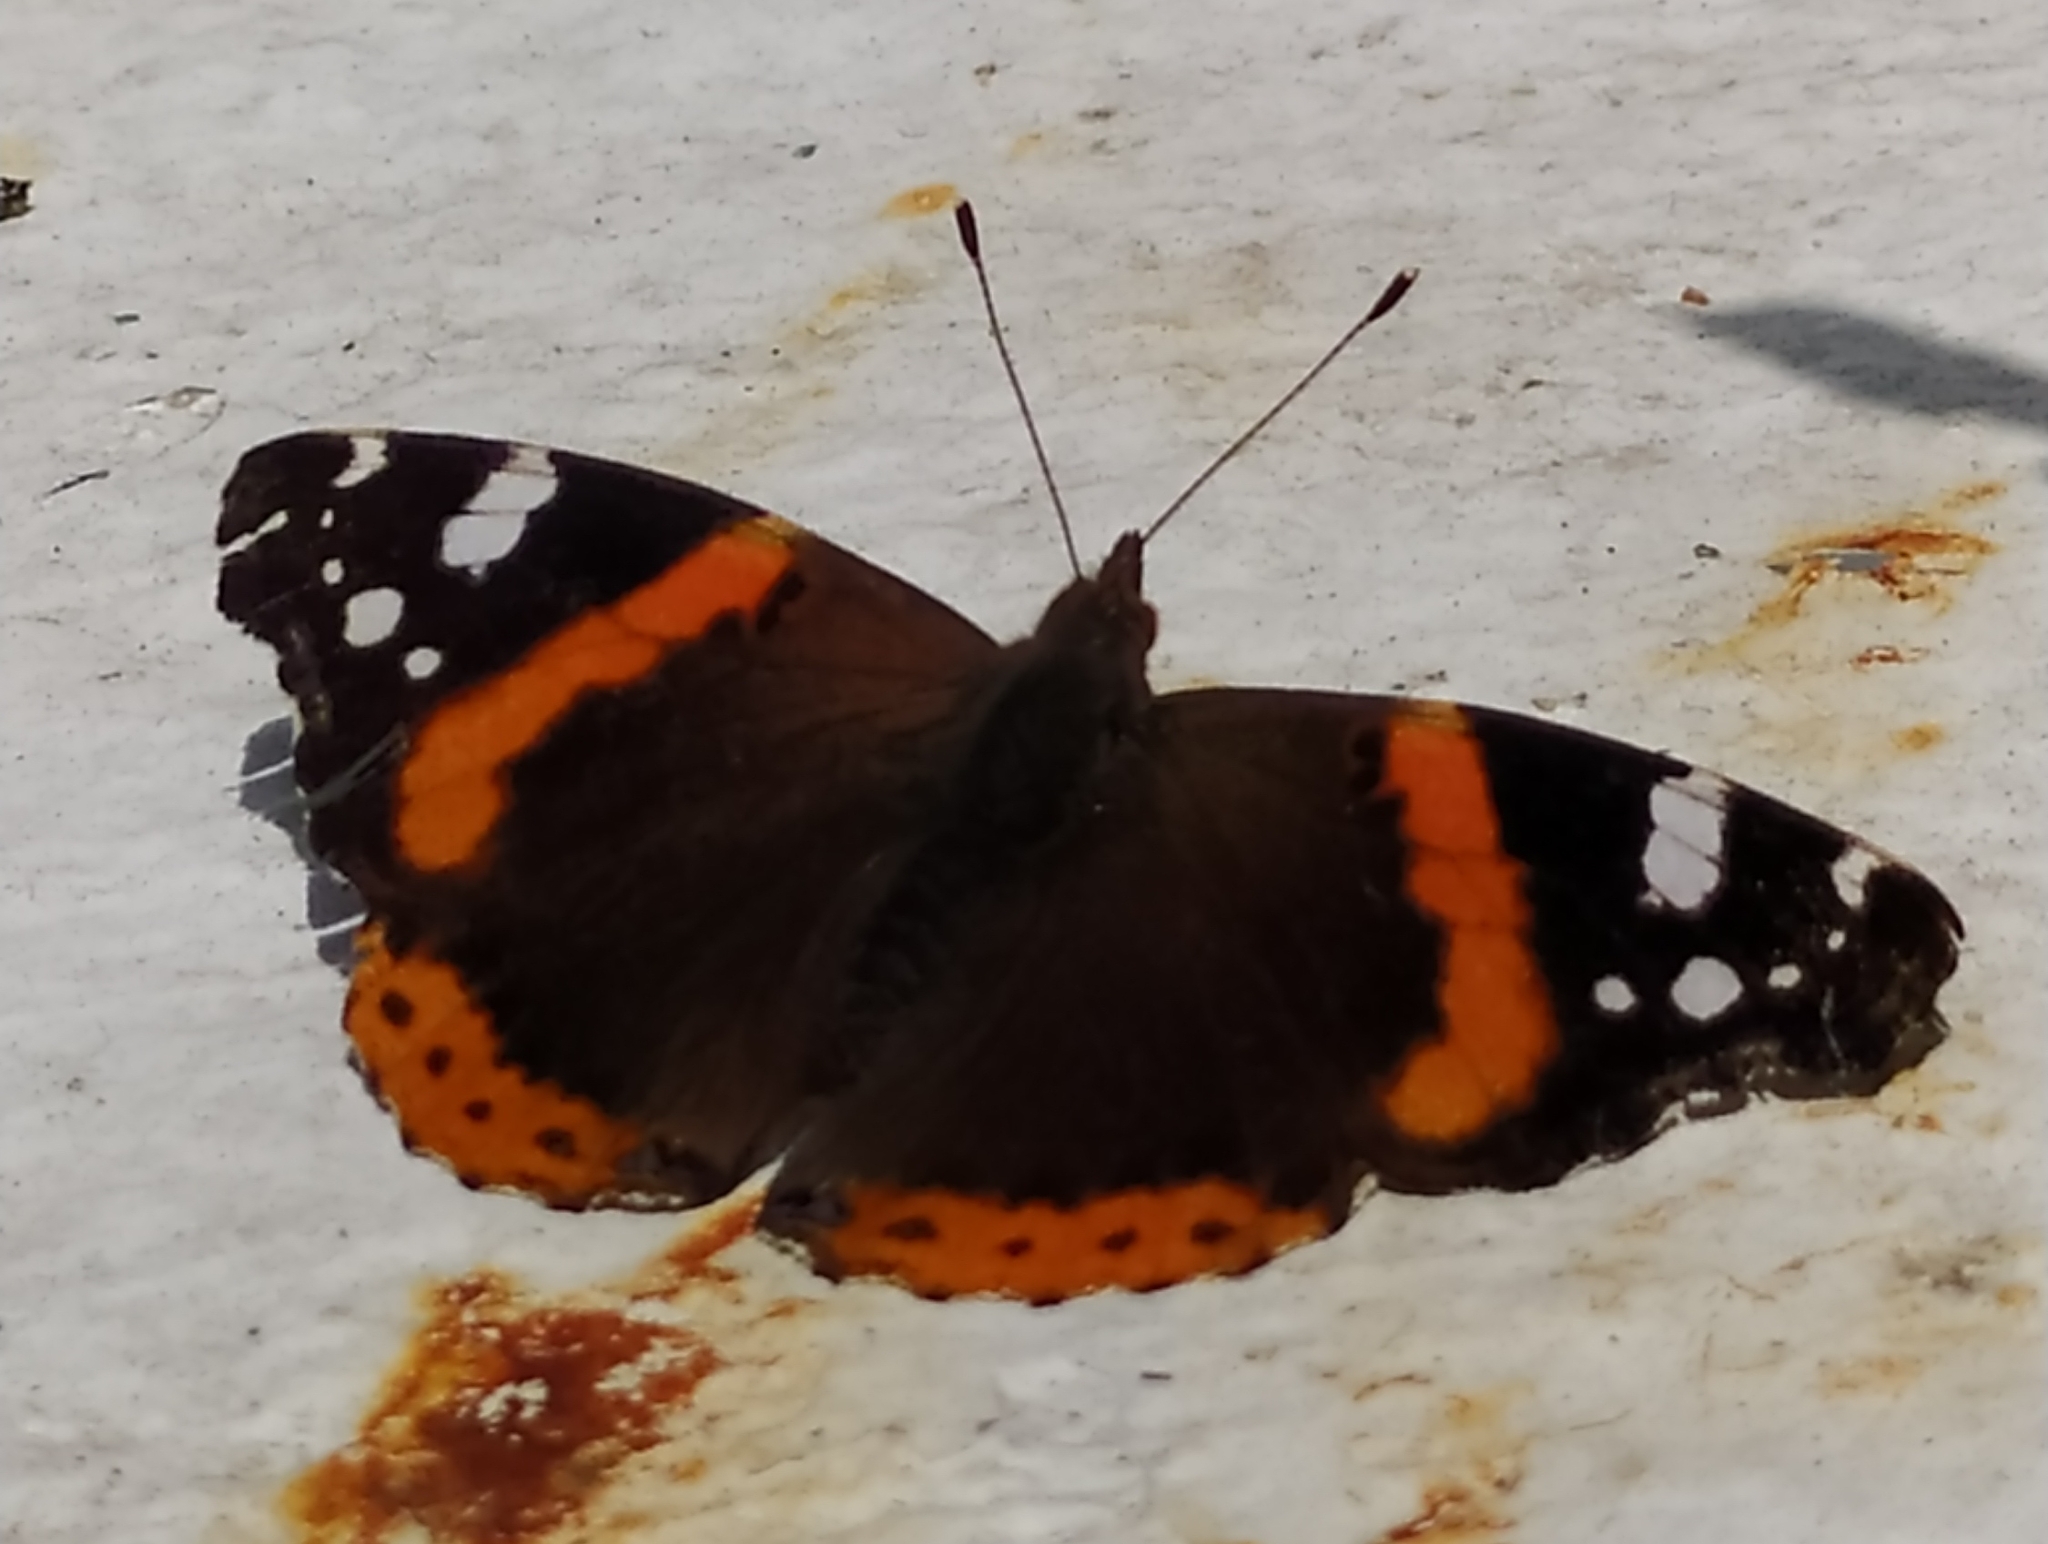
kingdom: Animalia
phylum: Arthropoda
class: Insecta
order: Lepidoptera
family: Nymphalidae
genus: Vanessa
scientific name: Vanessa atalanta
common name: Red admiral
